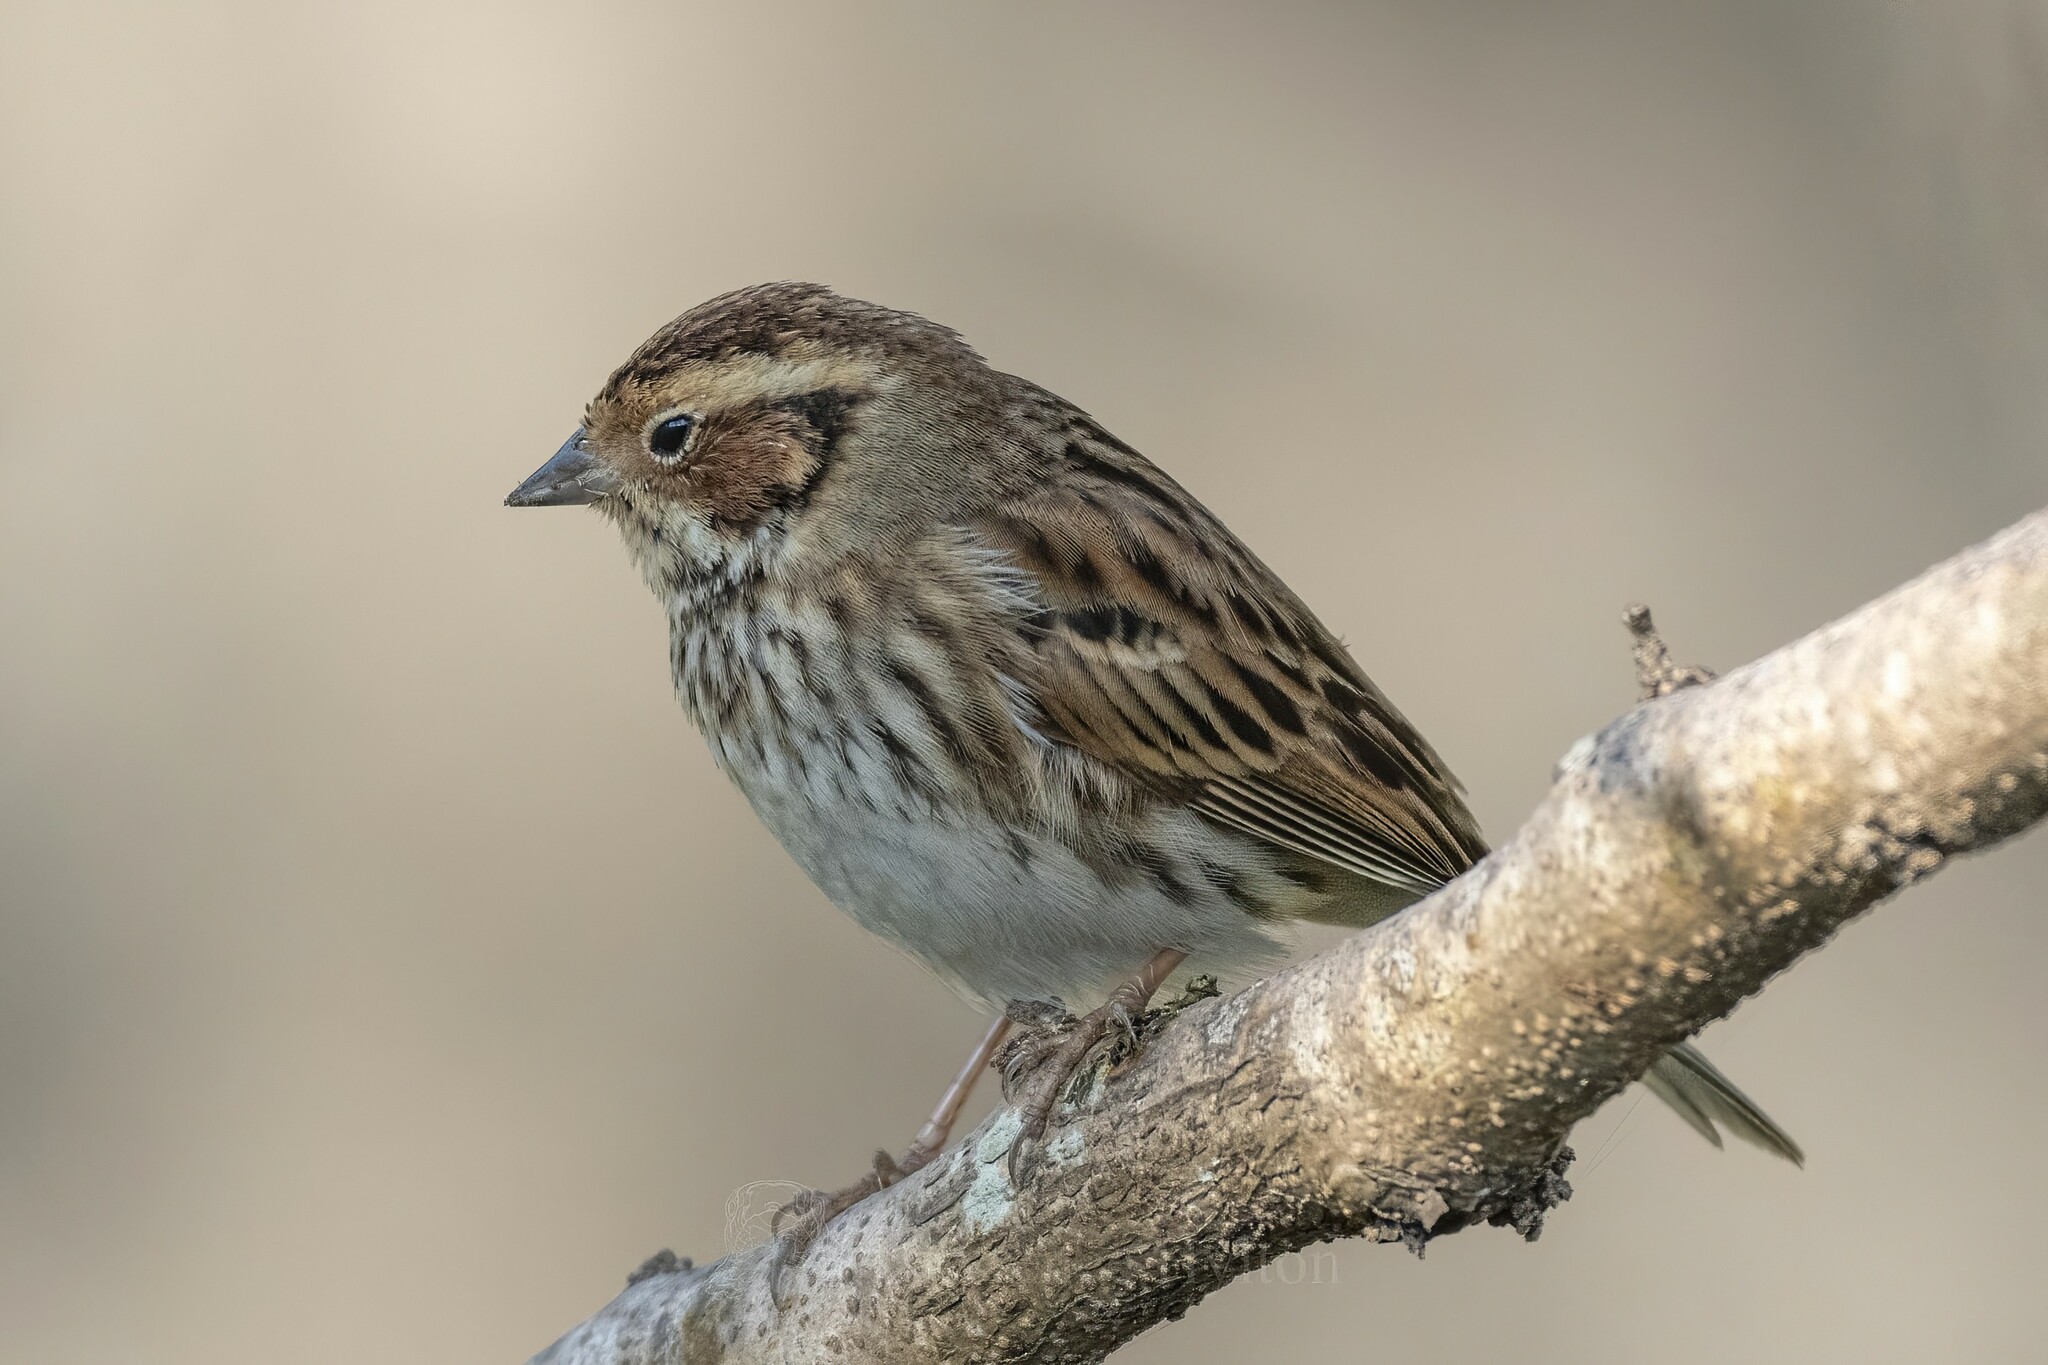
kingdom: Animalia
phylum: Chordata
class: Aves
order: Passeriformes
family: Emberizidae
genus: Emberiza
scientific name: Emberiza pusilla
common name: Little bunting
